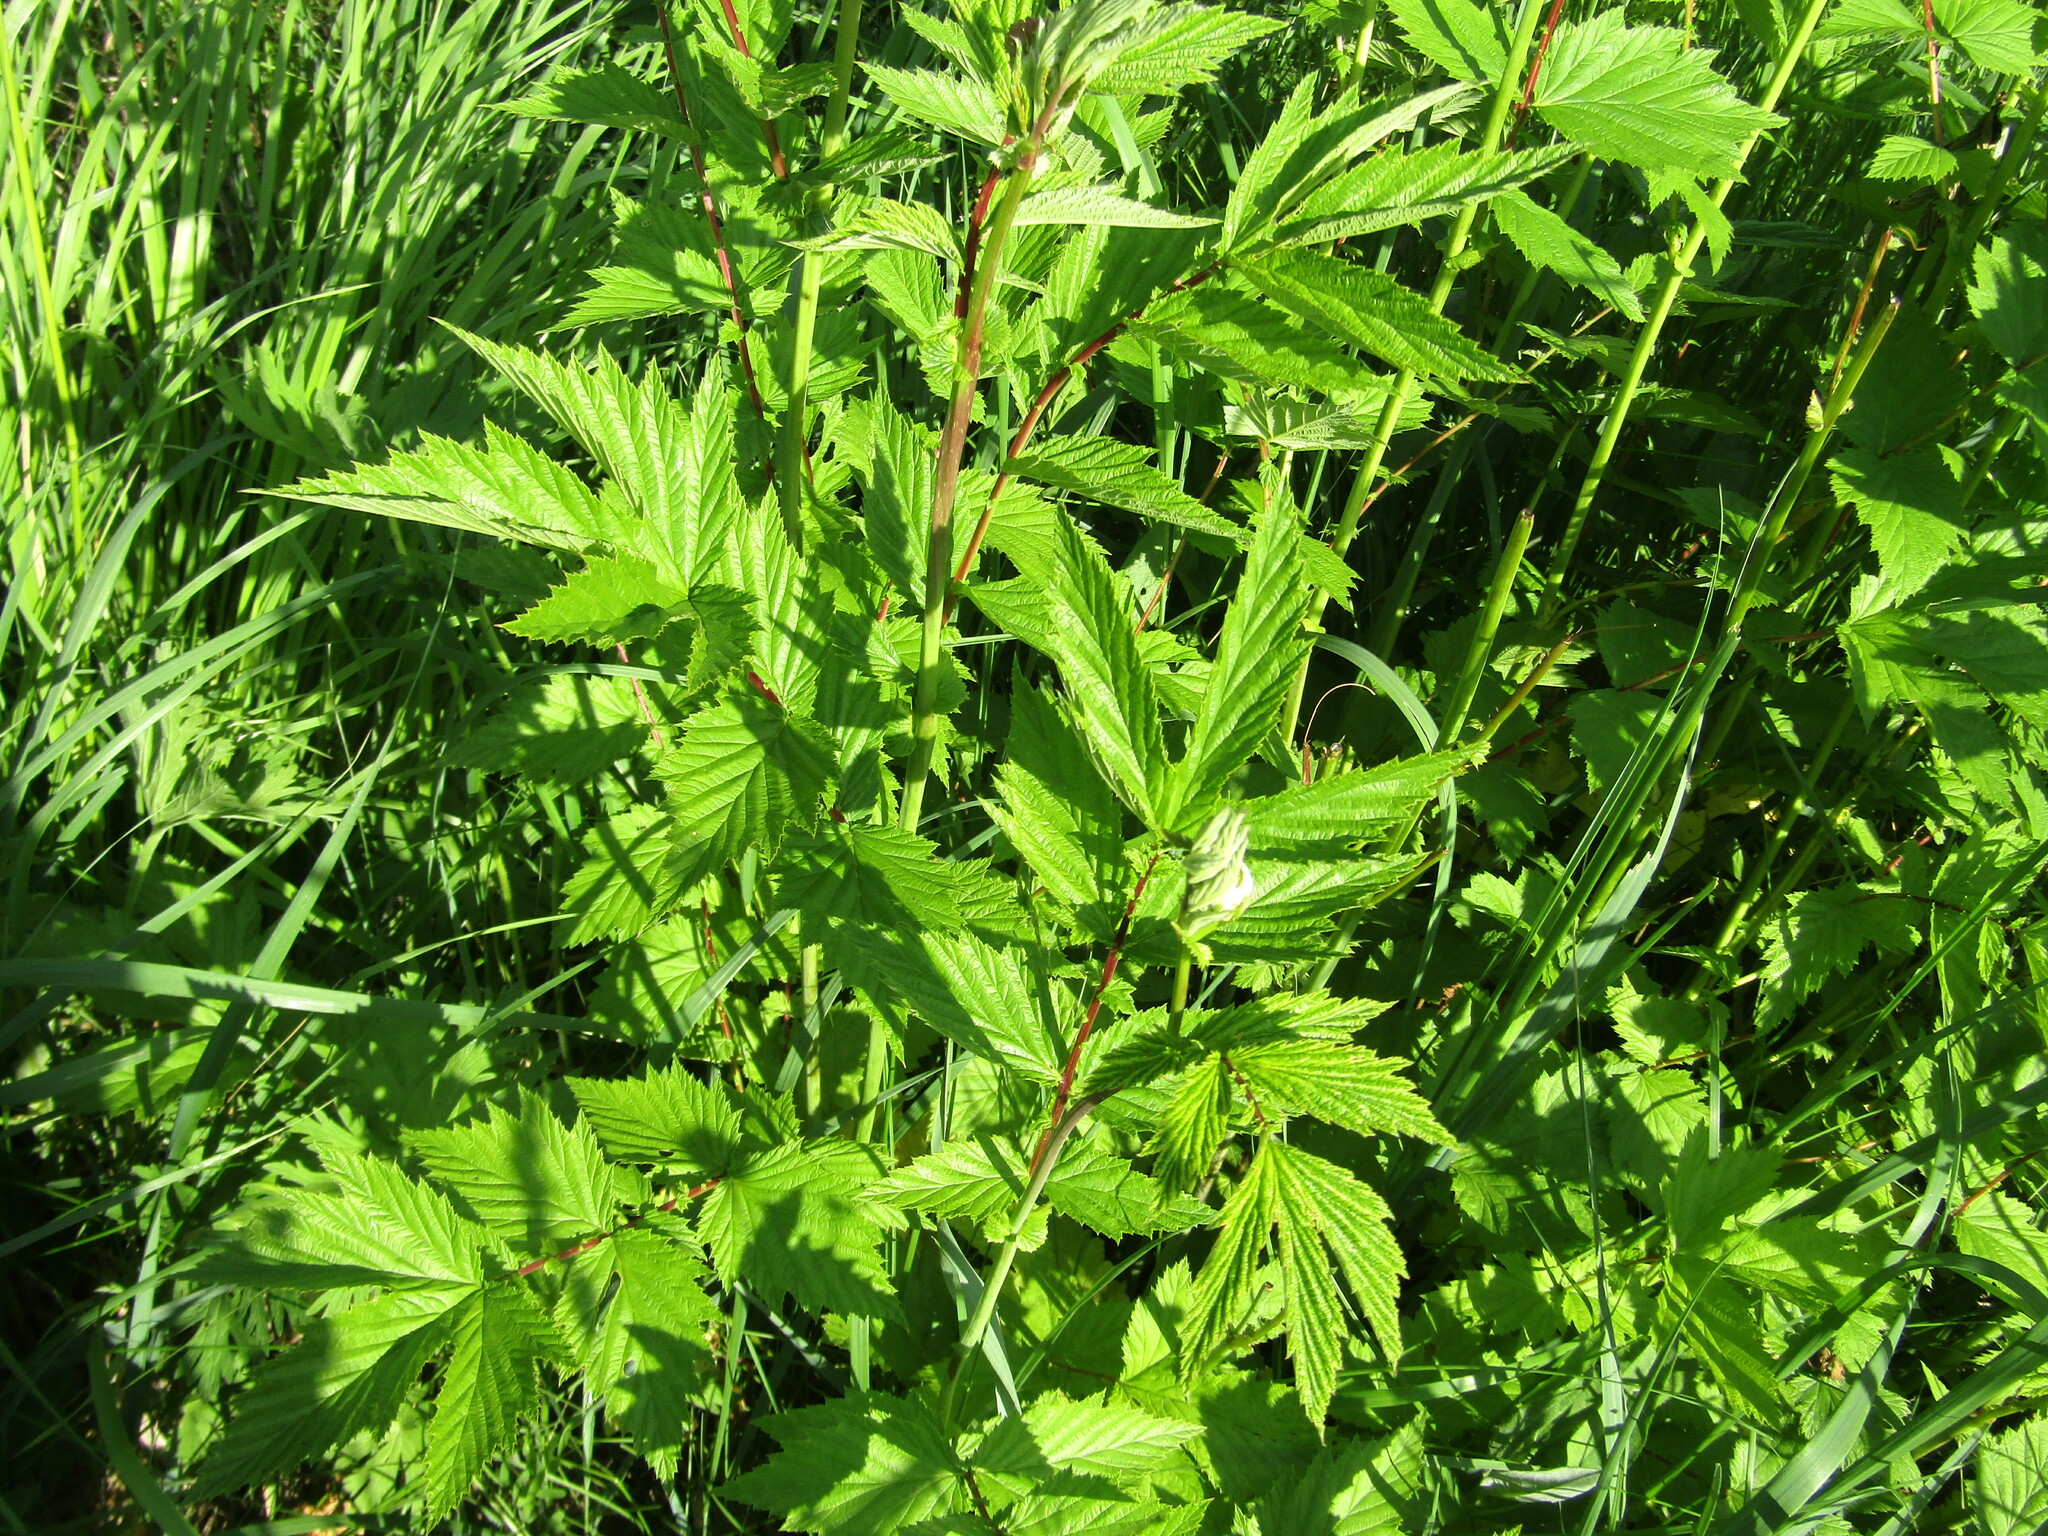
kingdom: Plantae
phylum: Tracheophyta
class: Magnoliopsida
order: Rosales
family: Rosaceae
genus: Filipendula
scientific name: Filipendula ulmaria
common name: Meadowsweet
